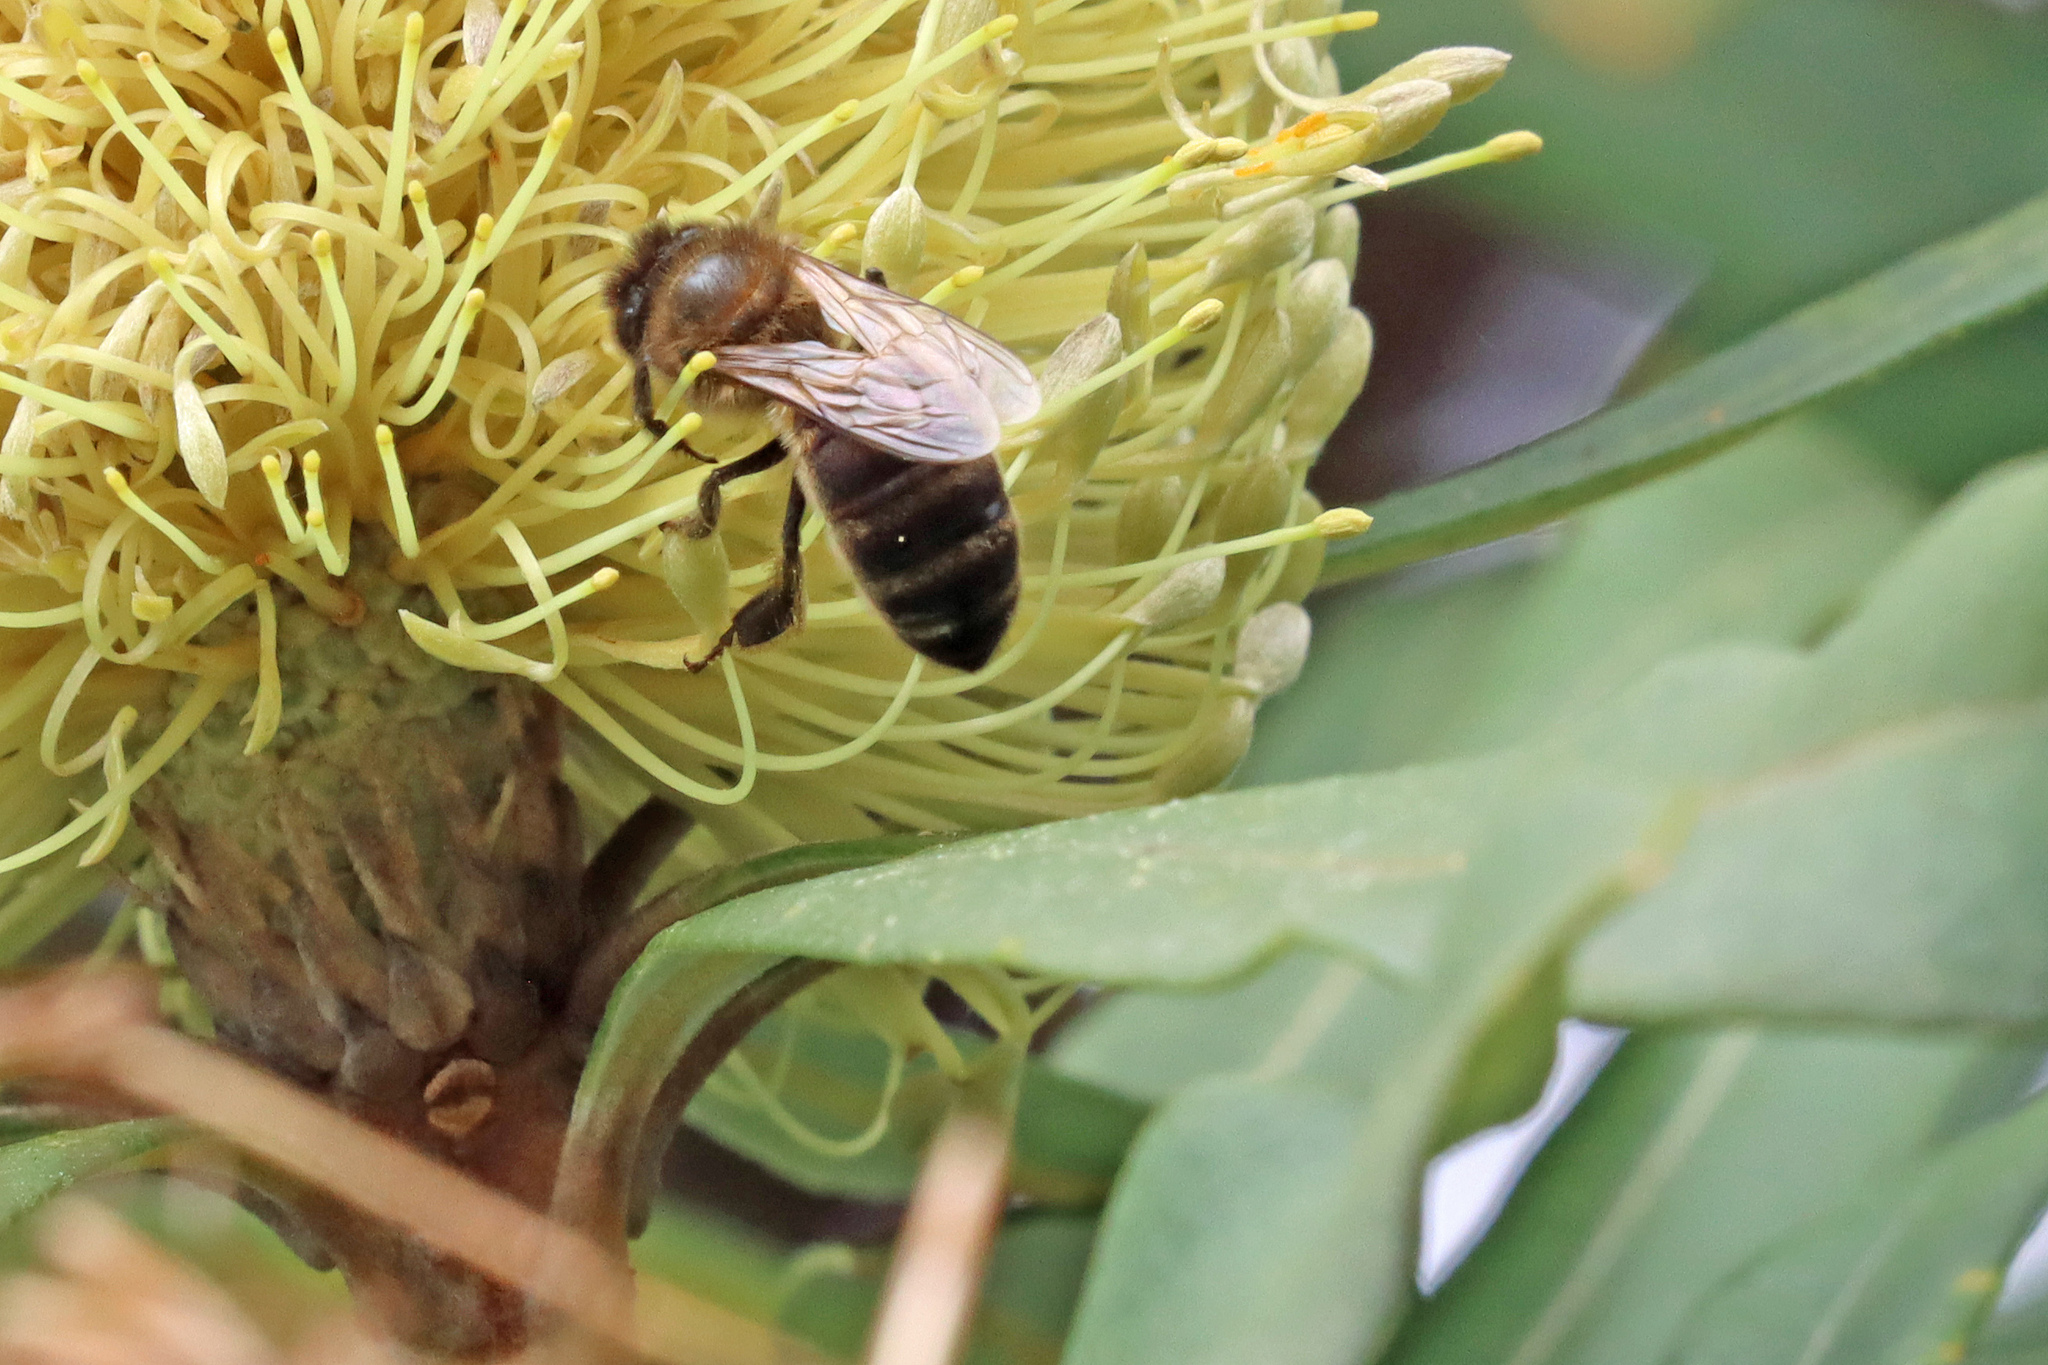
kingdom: Animalia
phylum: Arthropoda
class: Insecta
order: Hymenoptera
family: Apidae
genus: Apis
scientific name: Apis mellifera
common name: Honey bee
